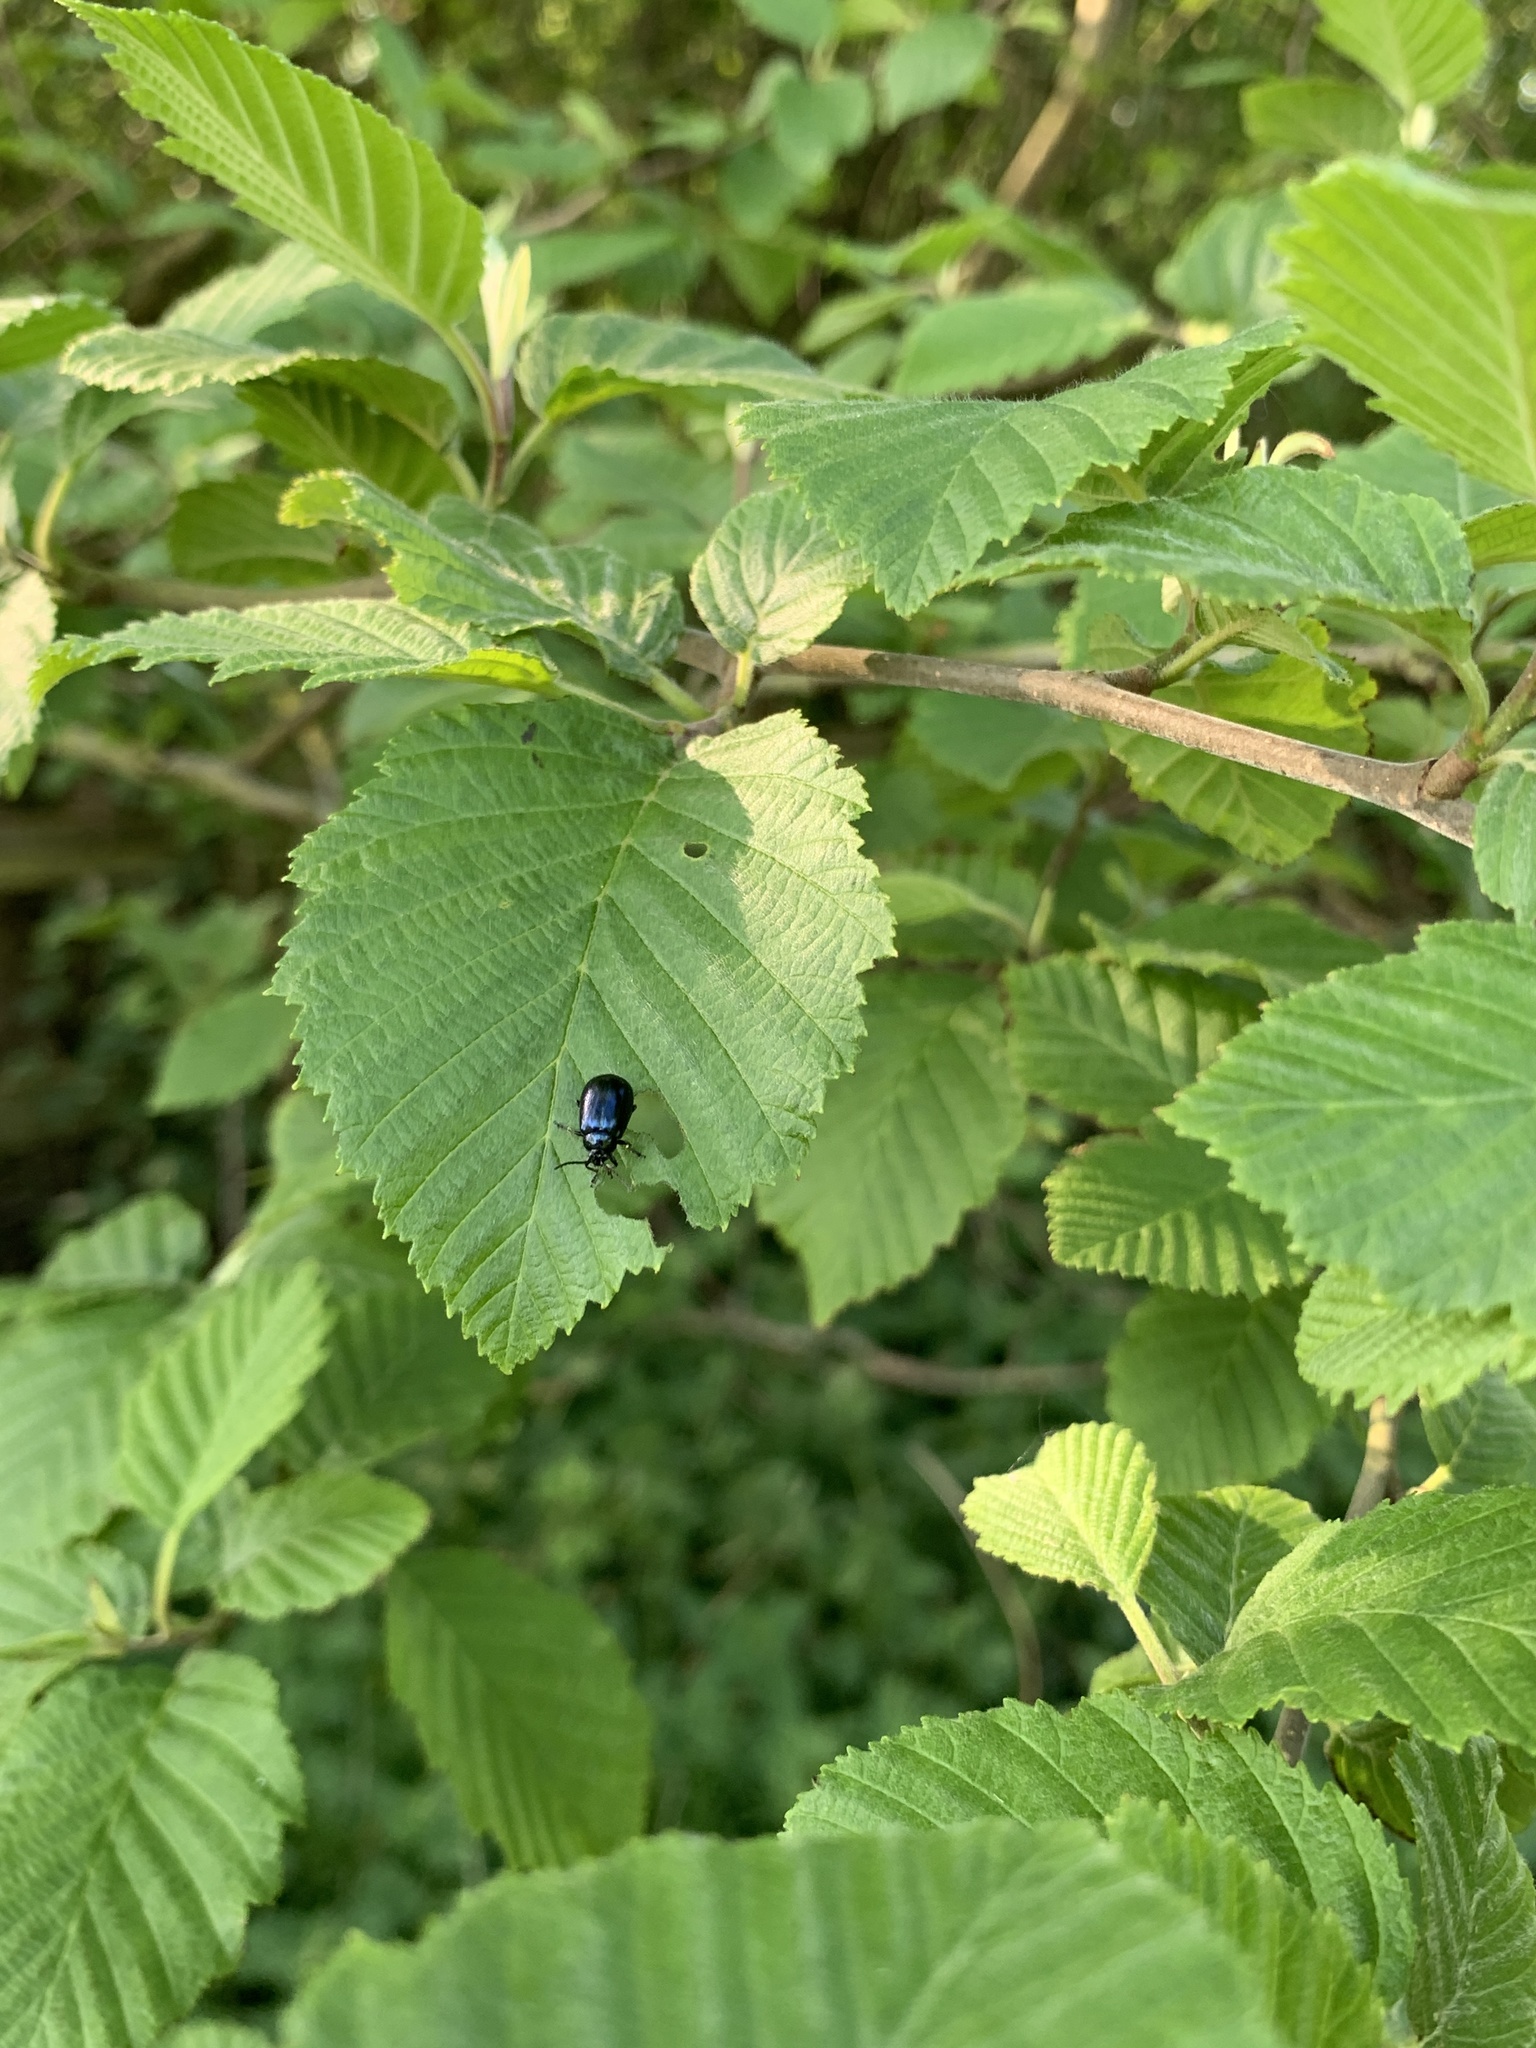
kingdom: Animalia
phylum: Arthropoda
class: Insecta
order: Coleoptera
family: Chrysomelidae
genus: Agelastica
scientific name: Agelastica alni
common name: Alder leaf beetle
